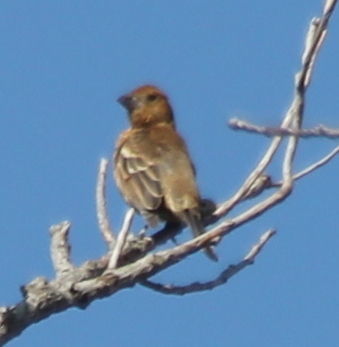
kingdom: Animalia
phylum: Chordata
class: Aves
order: Passeriformes
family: Cardinalidae
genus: Passerina
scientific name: Passerina amoena
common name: Lazuli bunting
